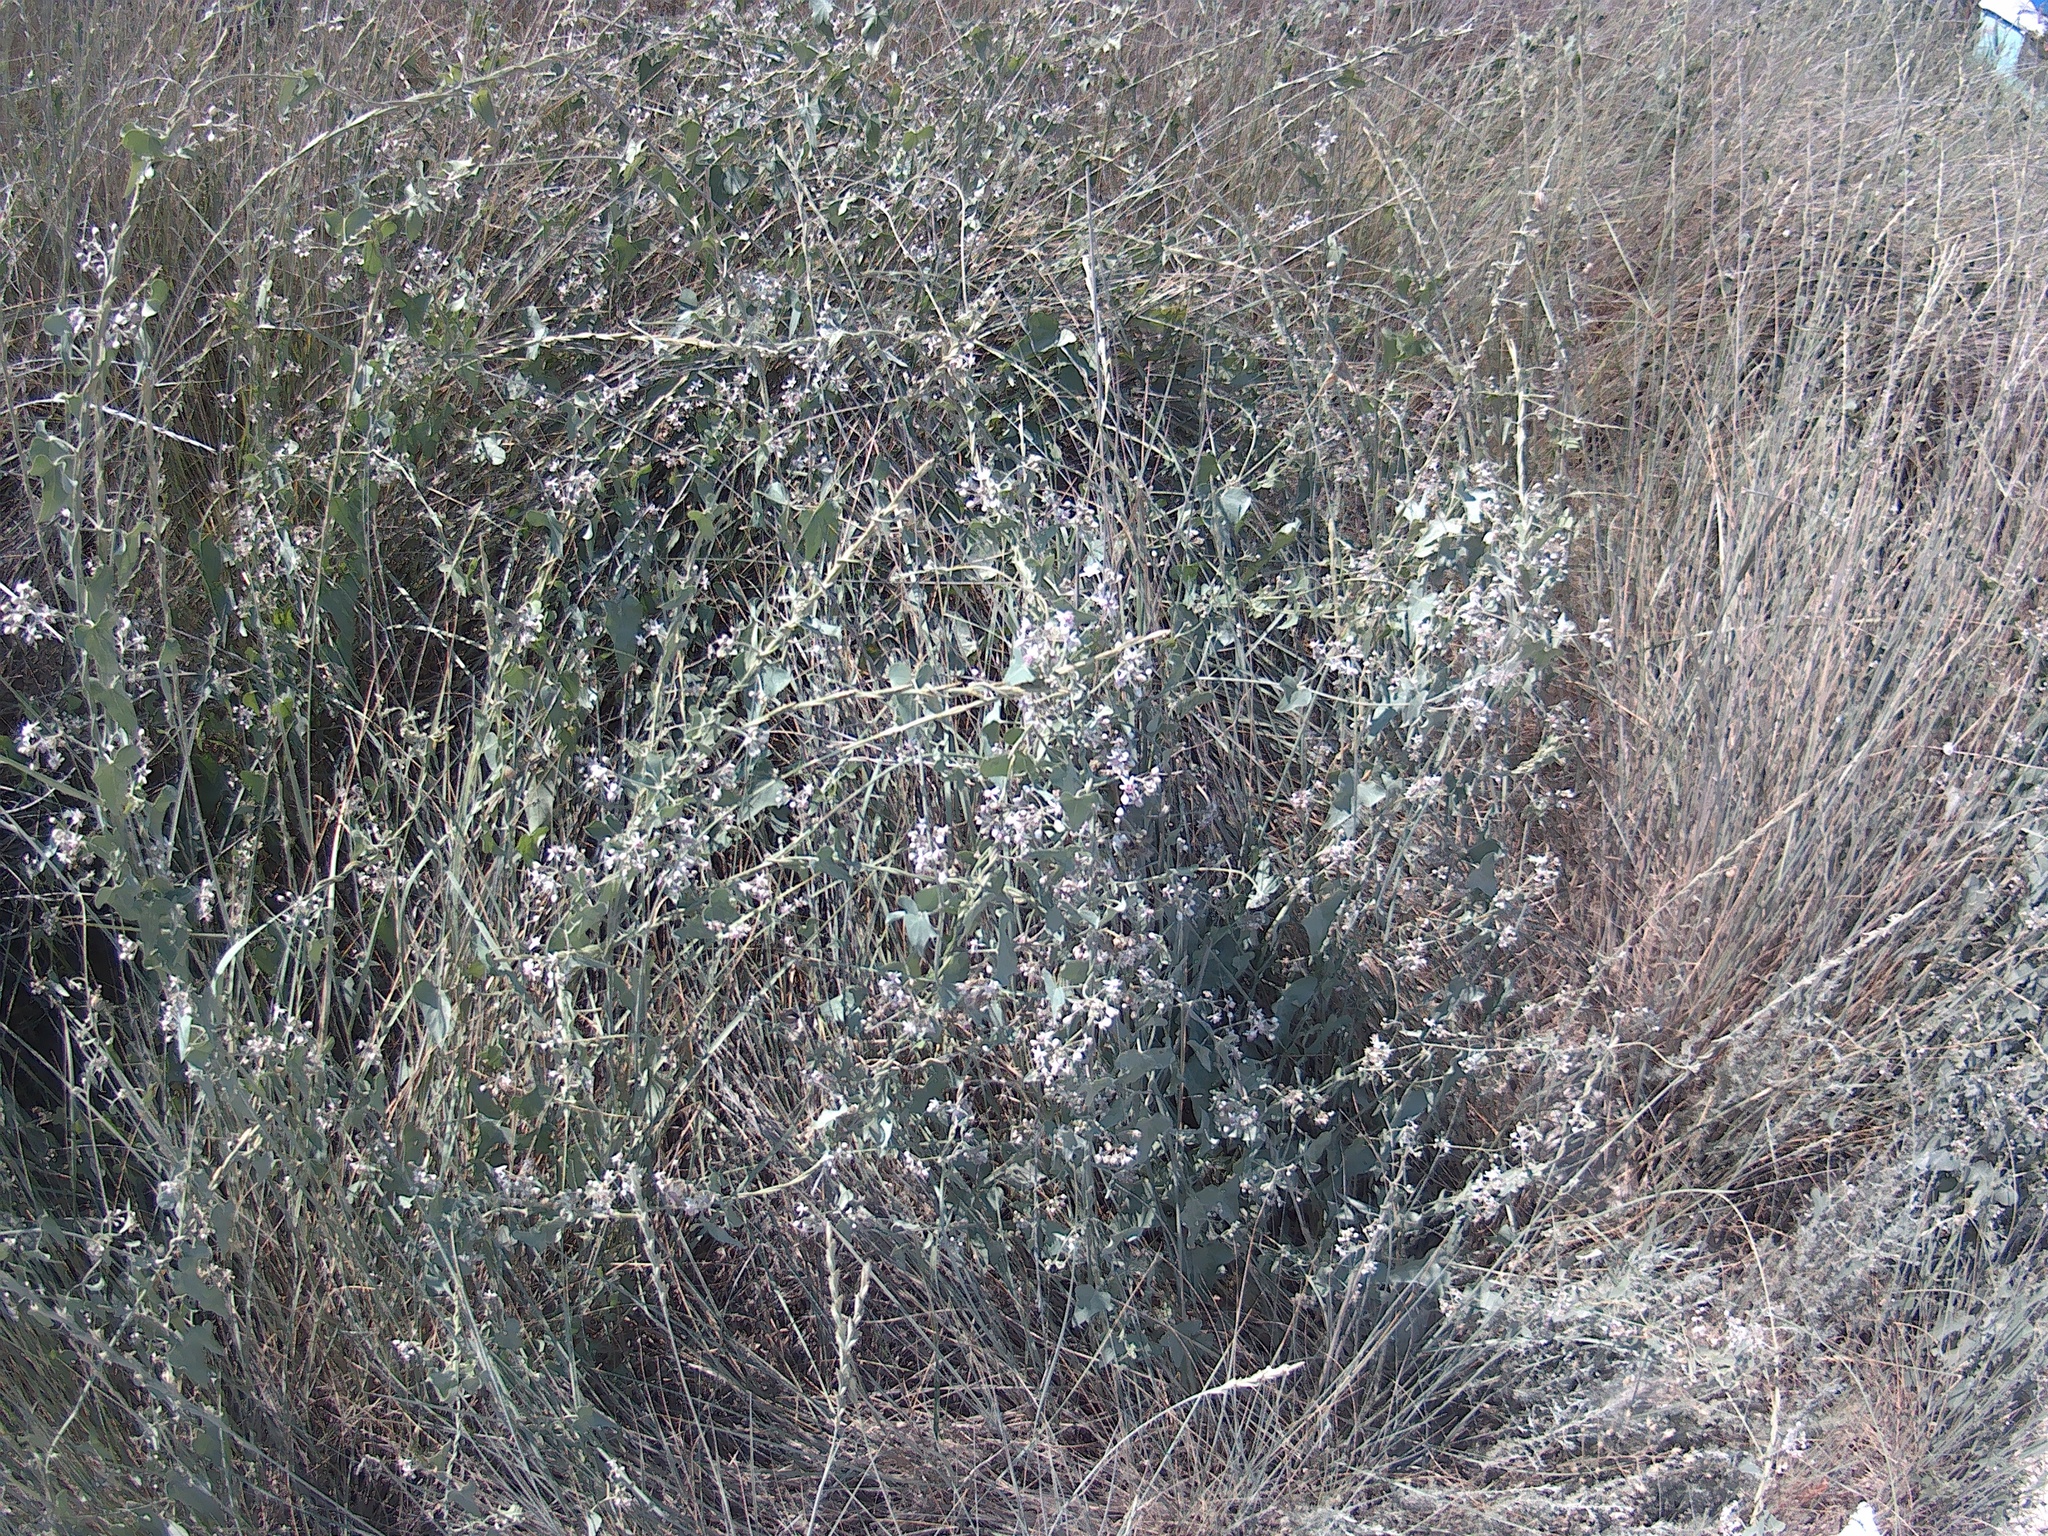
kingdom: Plantae
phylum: Tracheophyta
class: Magnoliopsida
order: Gentianales
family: Apocynaceae
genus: Cynanchum
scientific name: Cynanchum acutum
